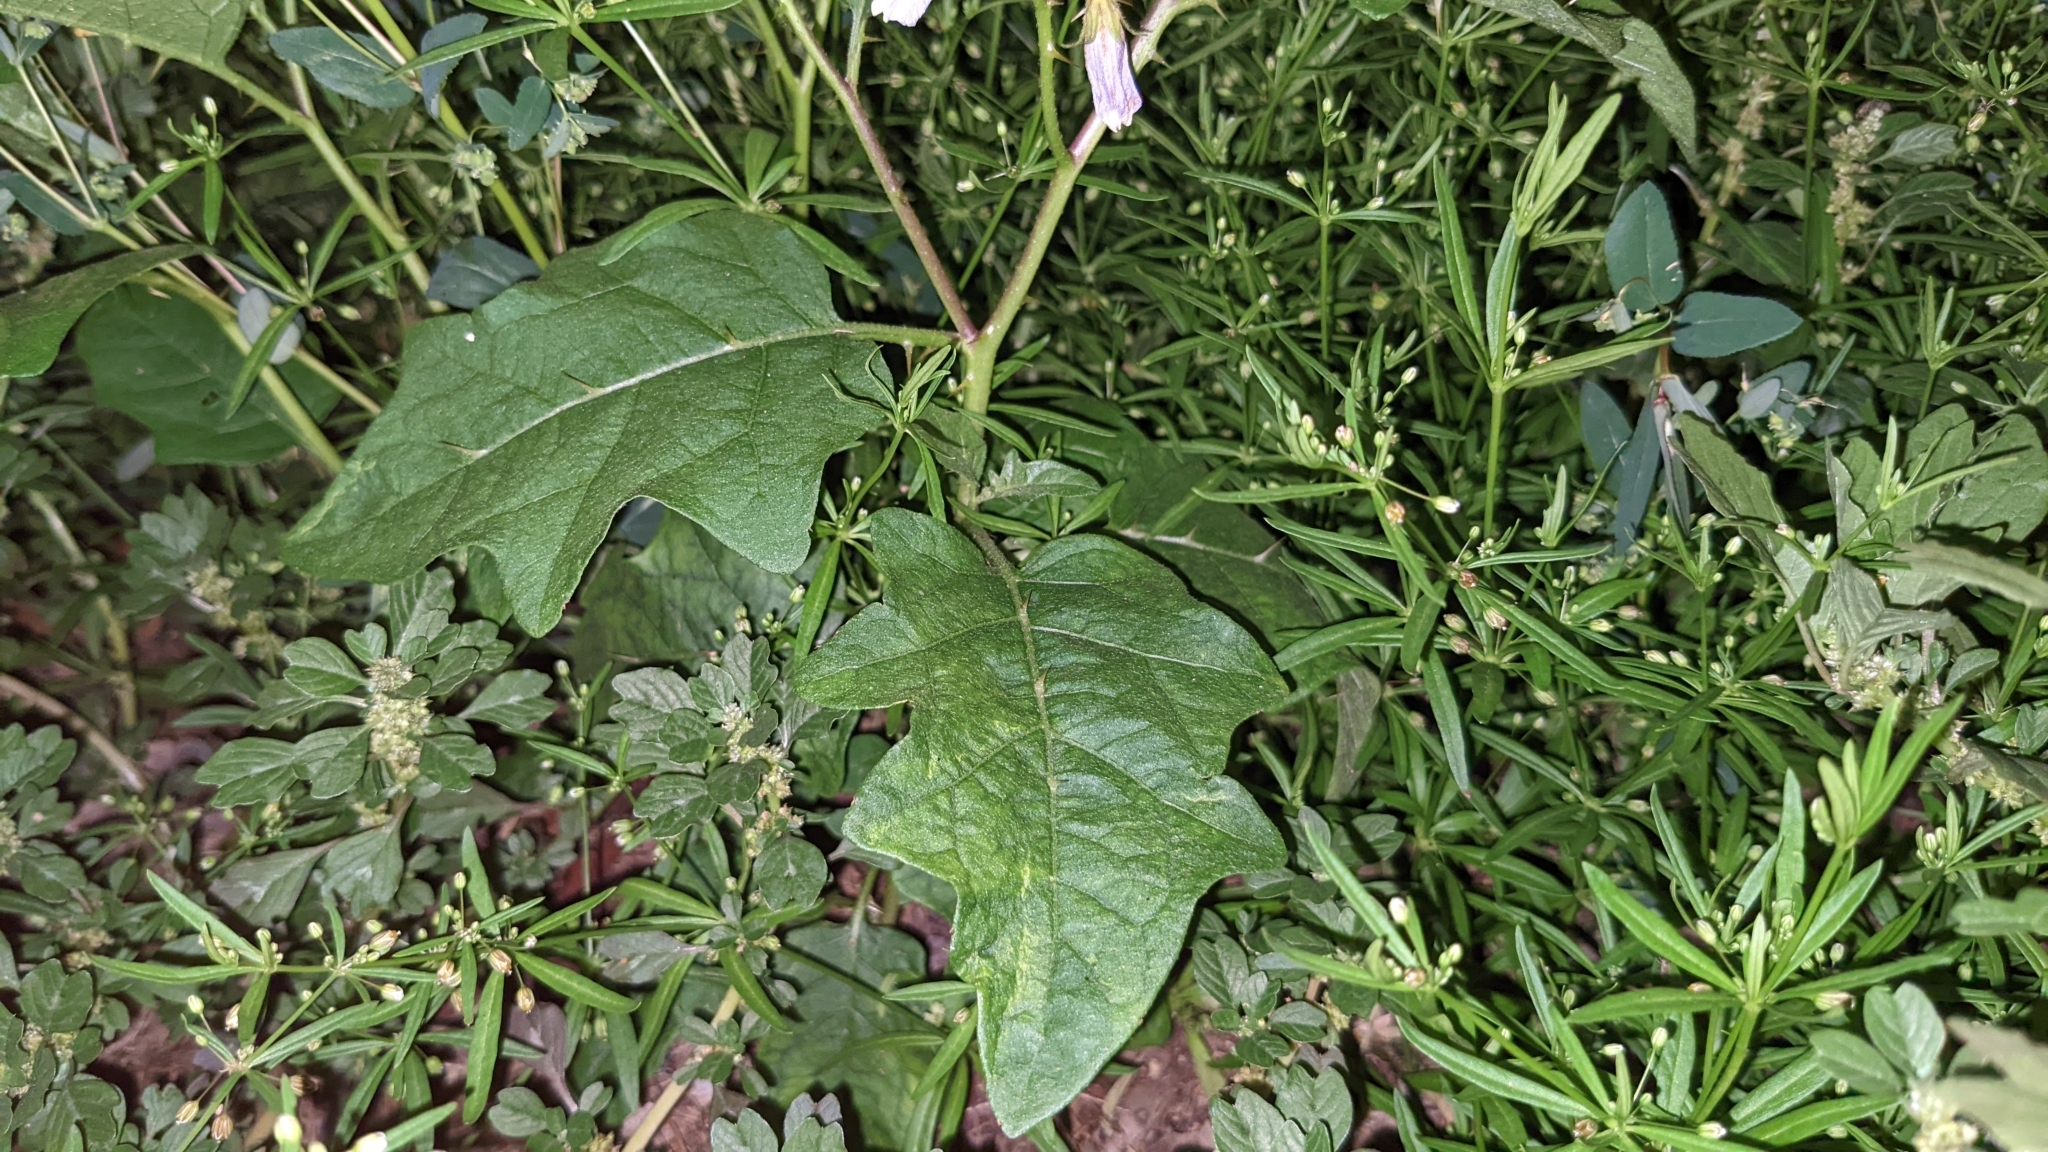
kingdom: Plantae
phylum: Tracheophyta
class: Magnoliopsida
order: Solanales
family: Solanaceae
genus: Solanum
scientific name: Solanum carolinense
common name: Horse-nettle
